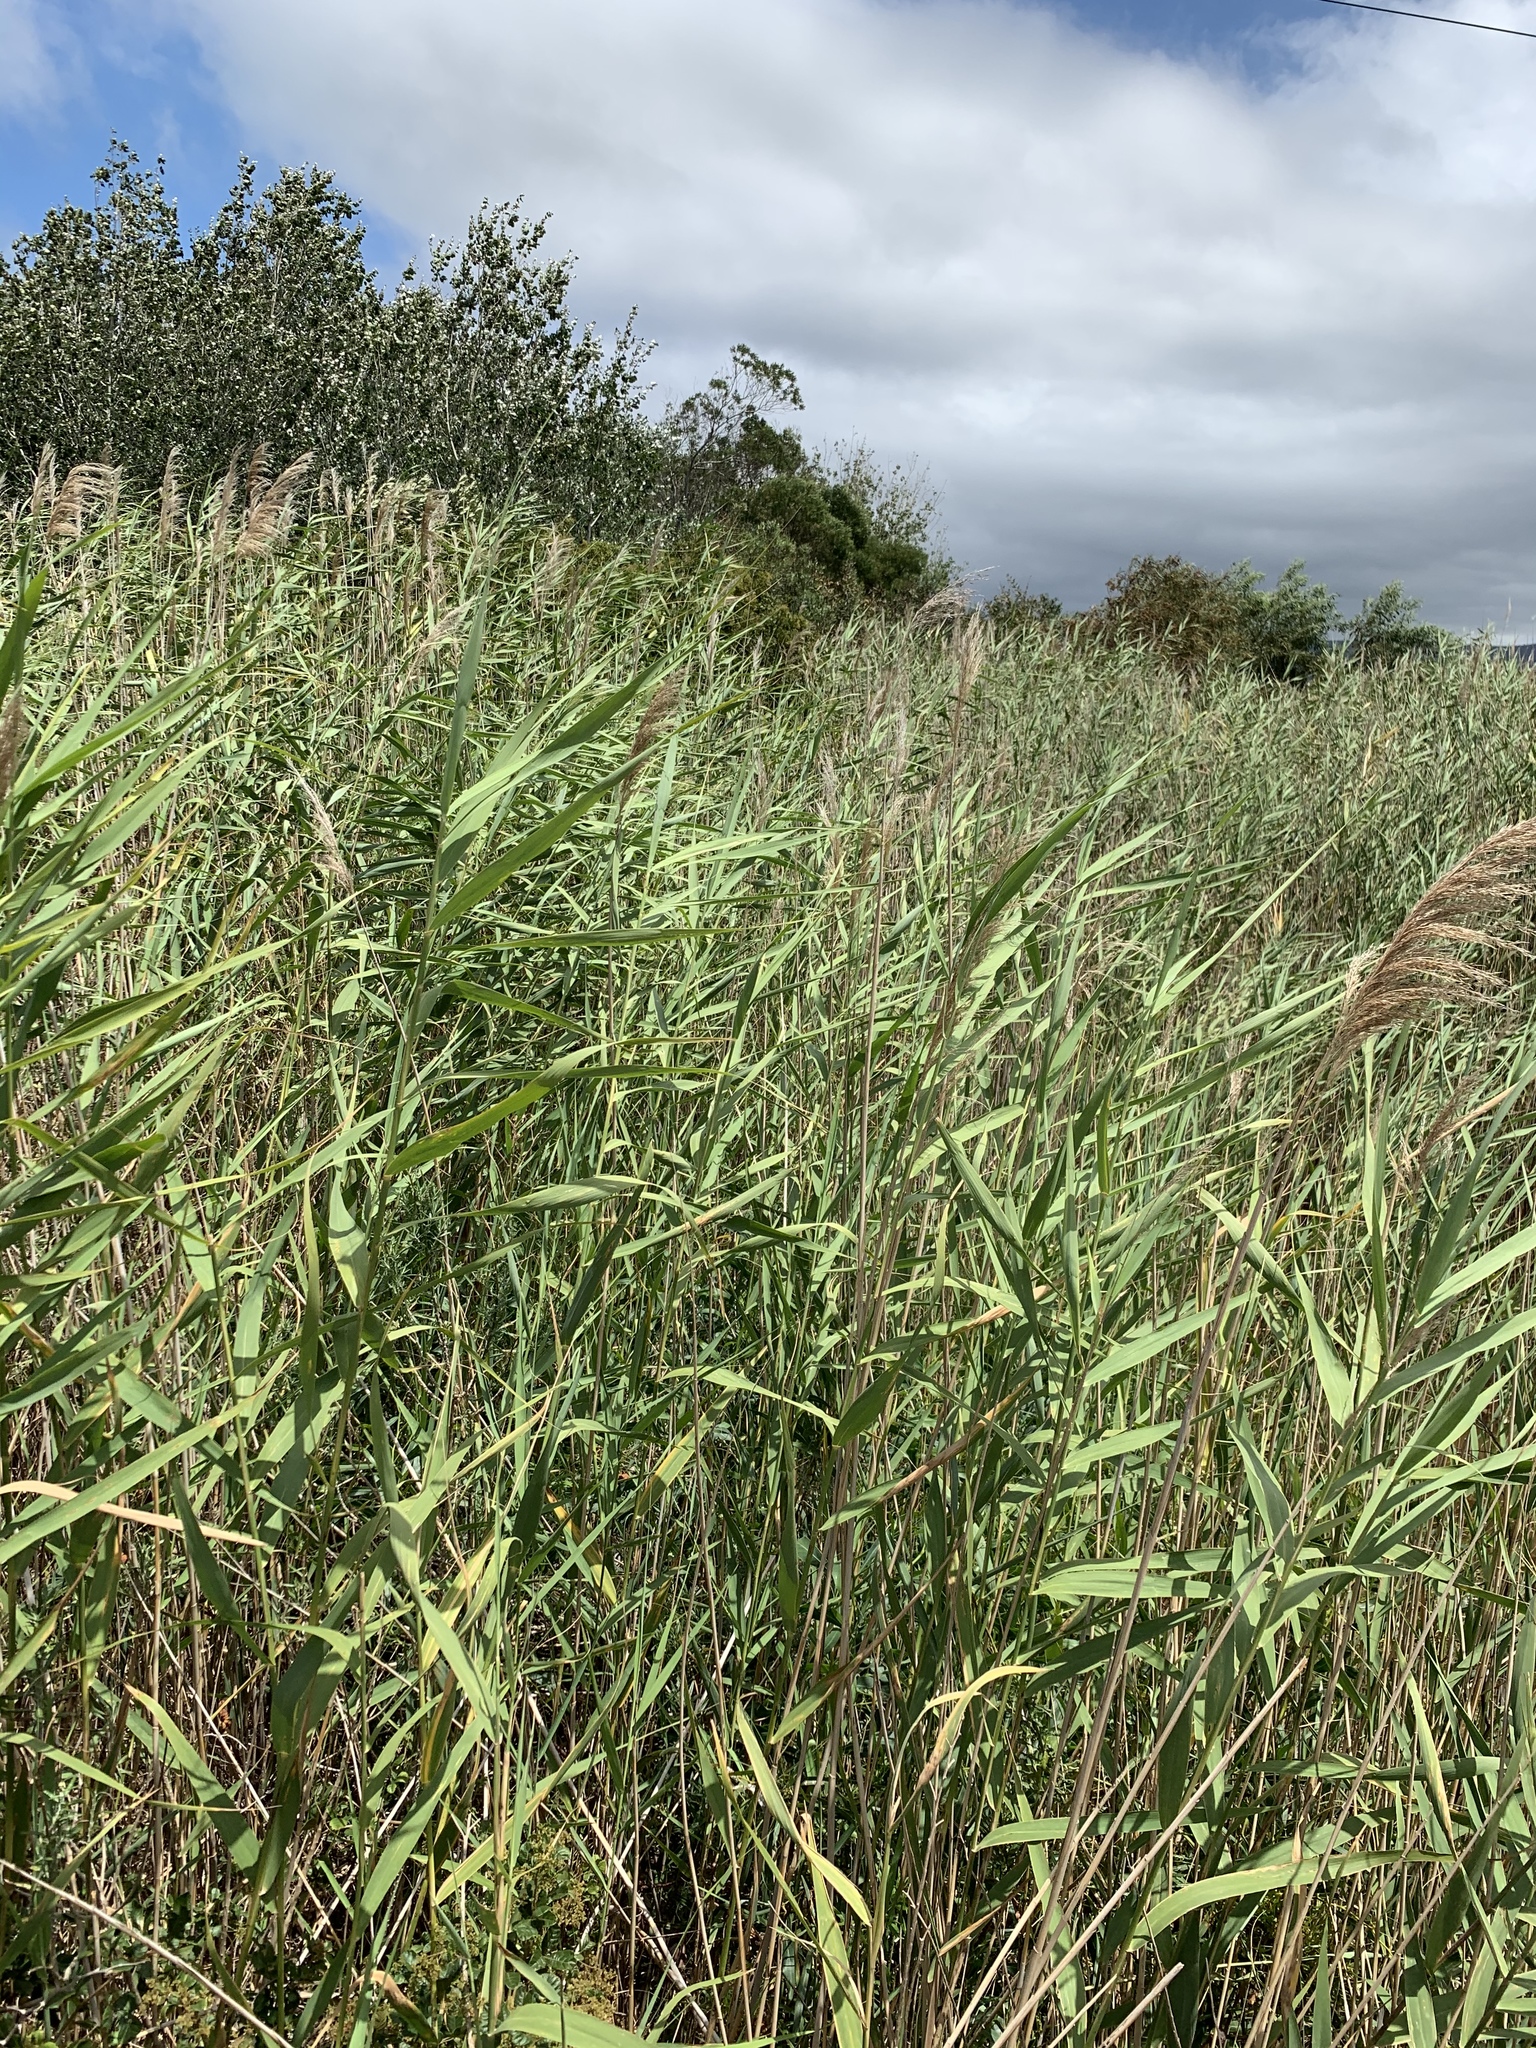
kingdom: Plantae
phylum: Tracheophyta
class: Liliopsida
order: Poales
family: Poaceae
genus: Phragmites
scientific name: Phragmites australis
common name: Common reed
